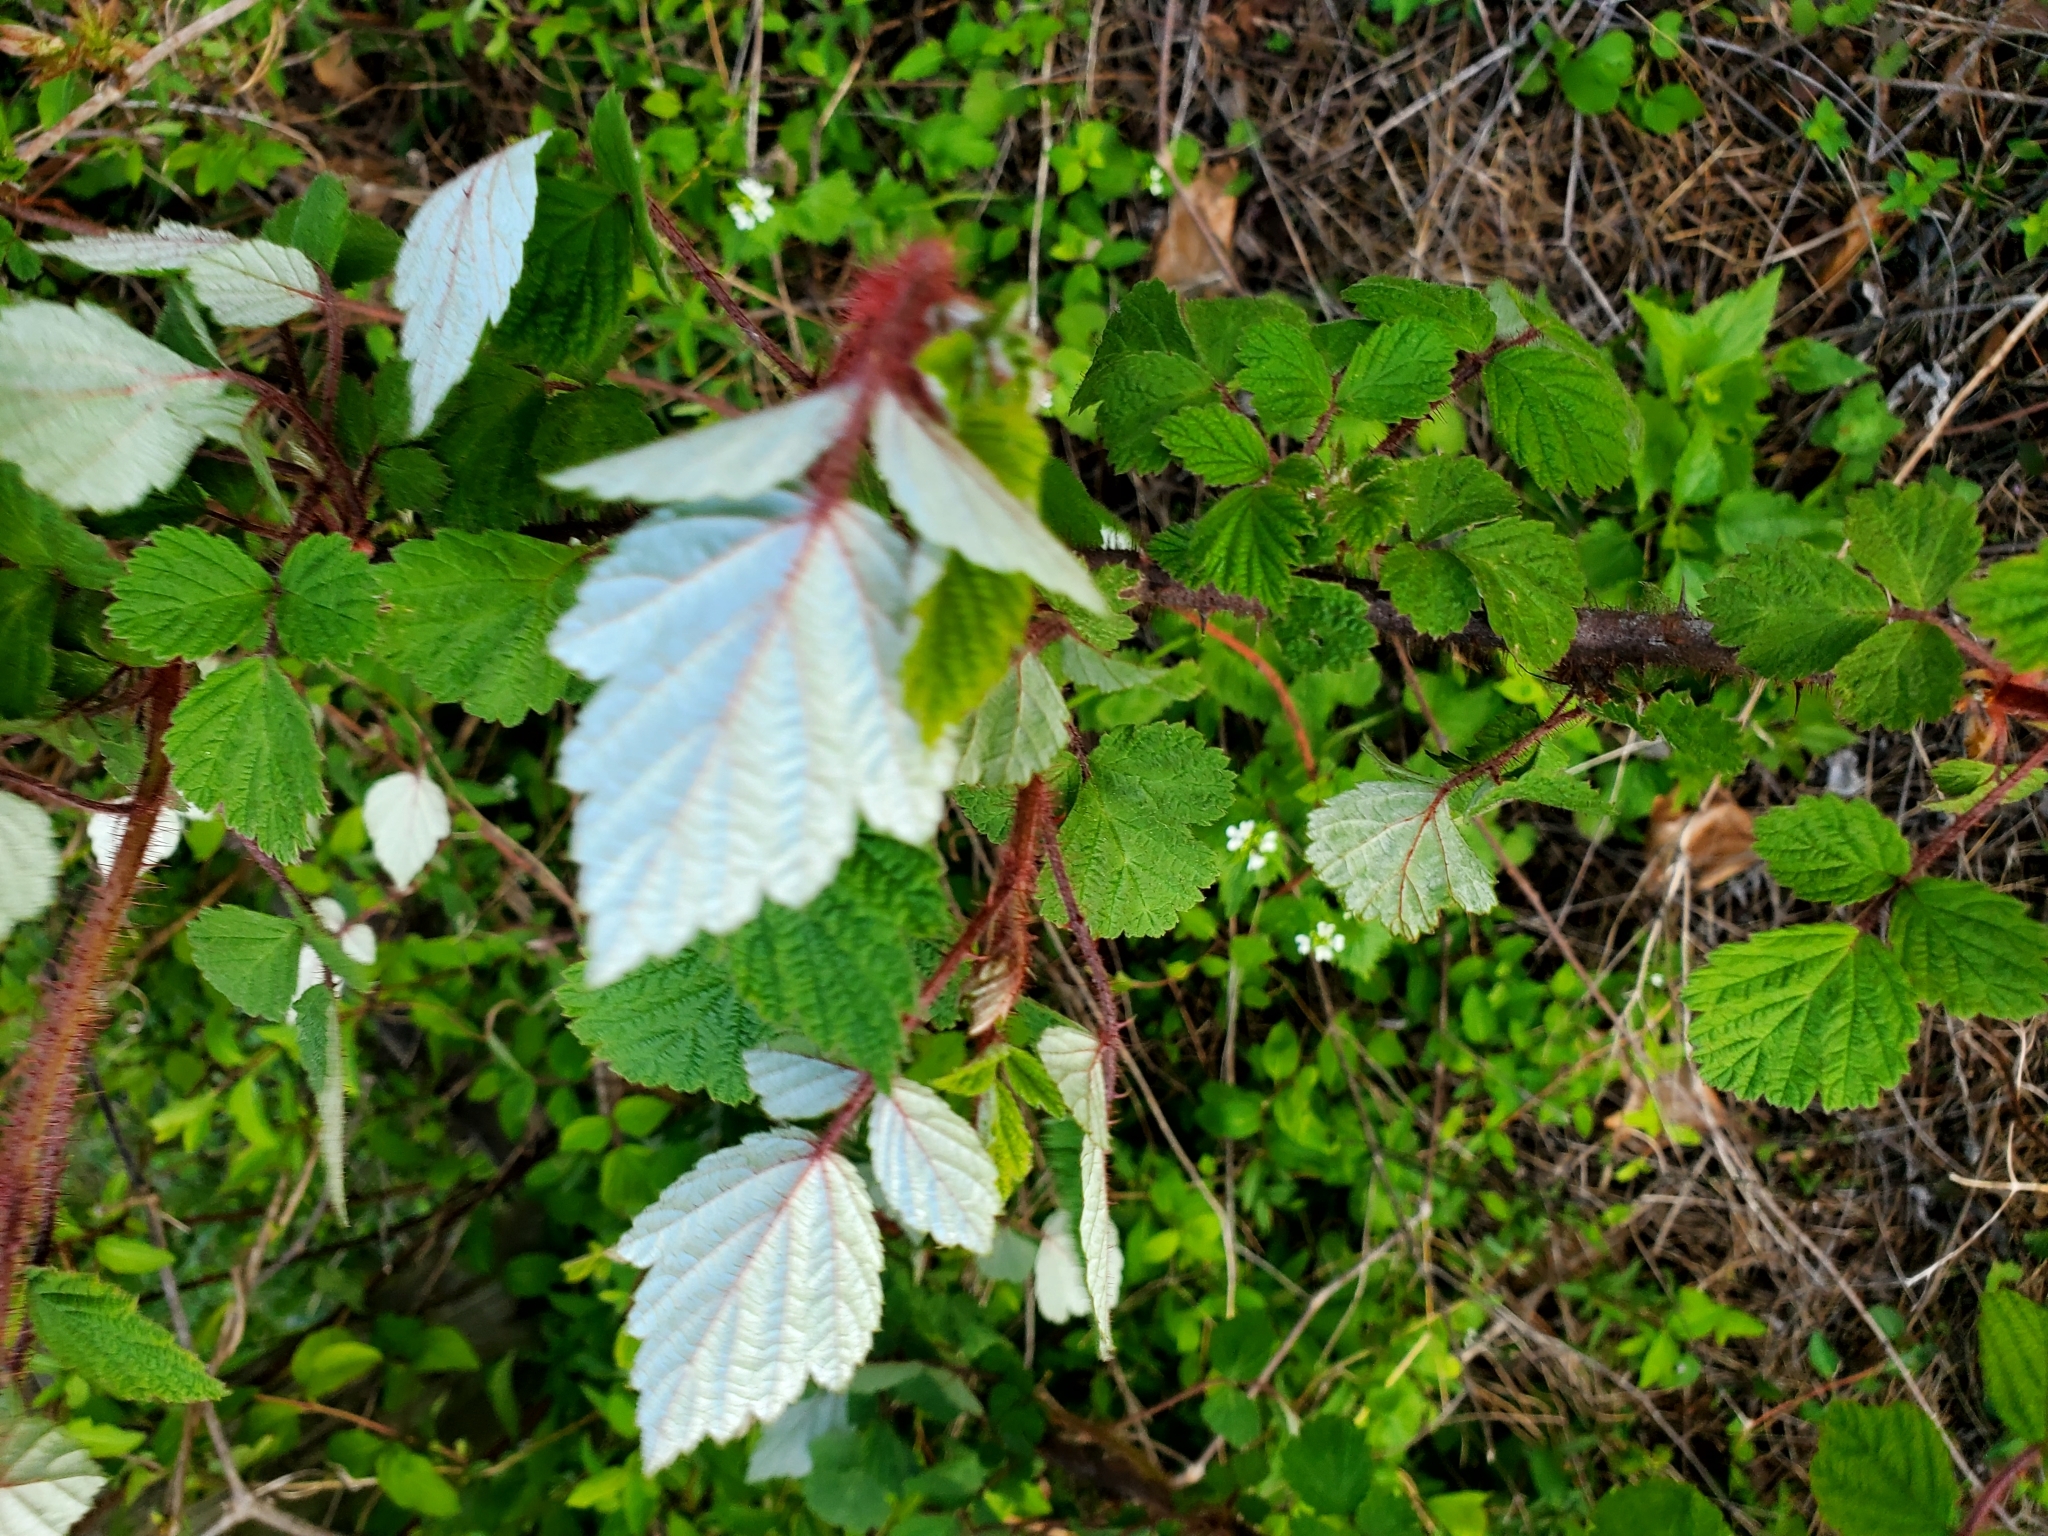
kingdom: Plantae
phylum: Tracheophyta
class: Magnoliopsida
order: Rosales
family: Rosaceae
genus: Rubus
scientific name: Rubus phoenicolasius
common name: Japanese wineberry
